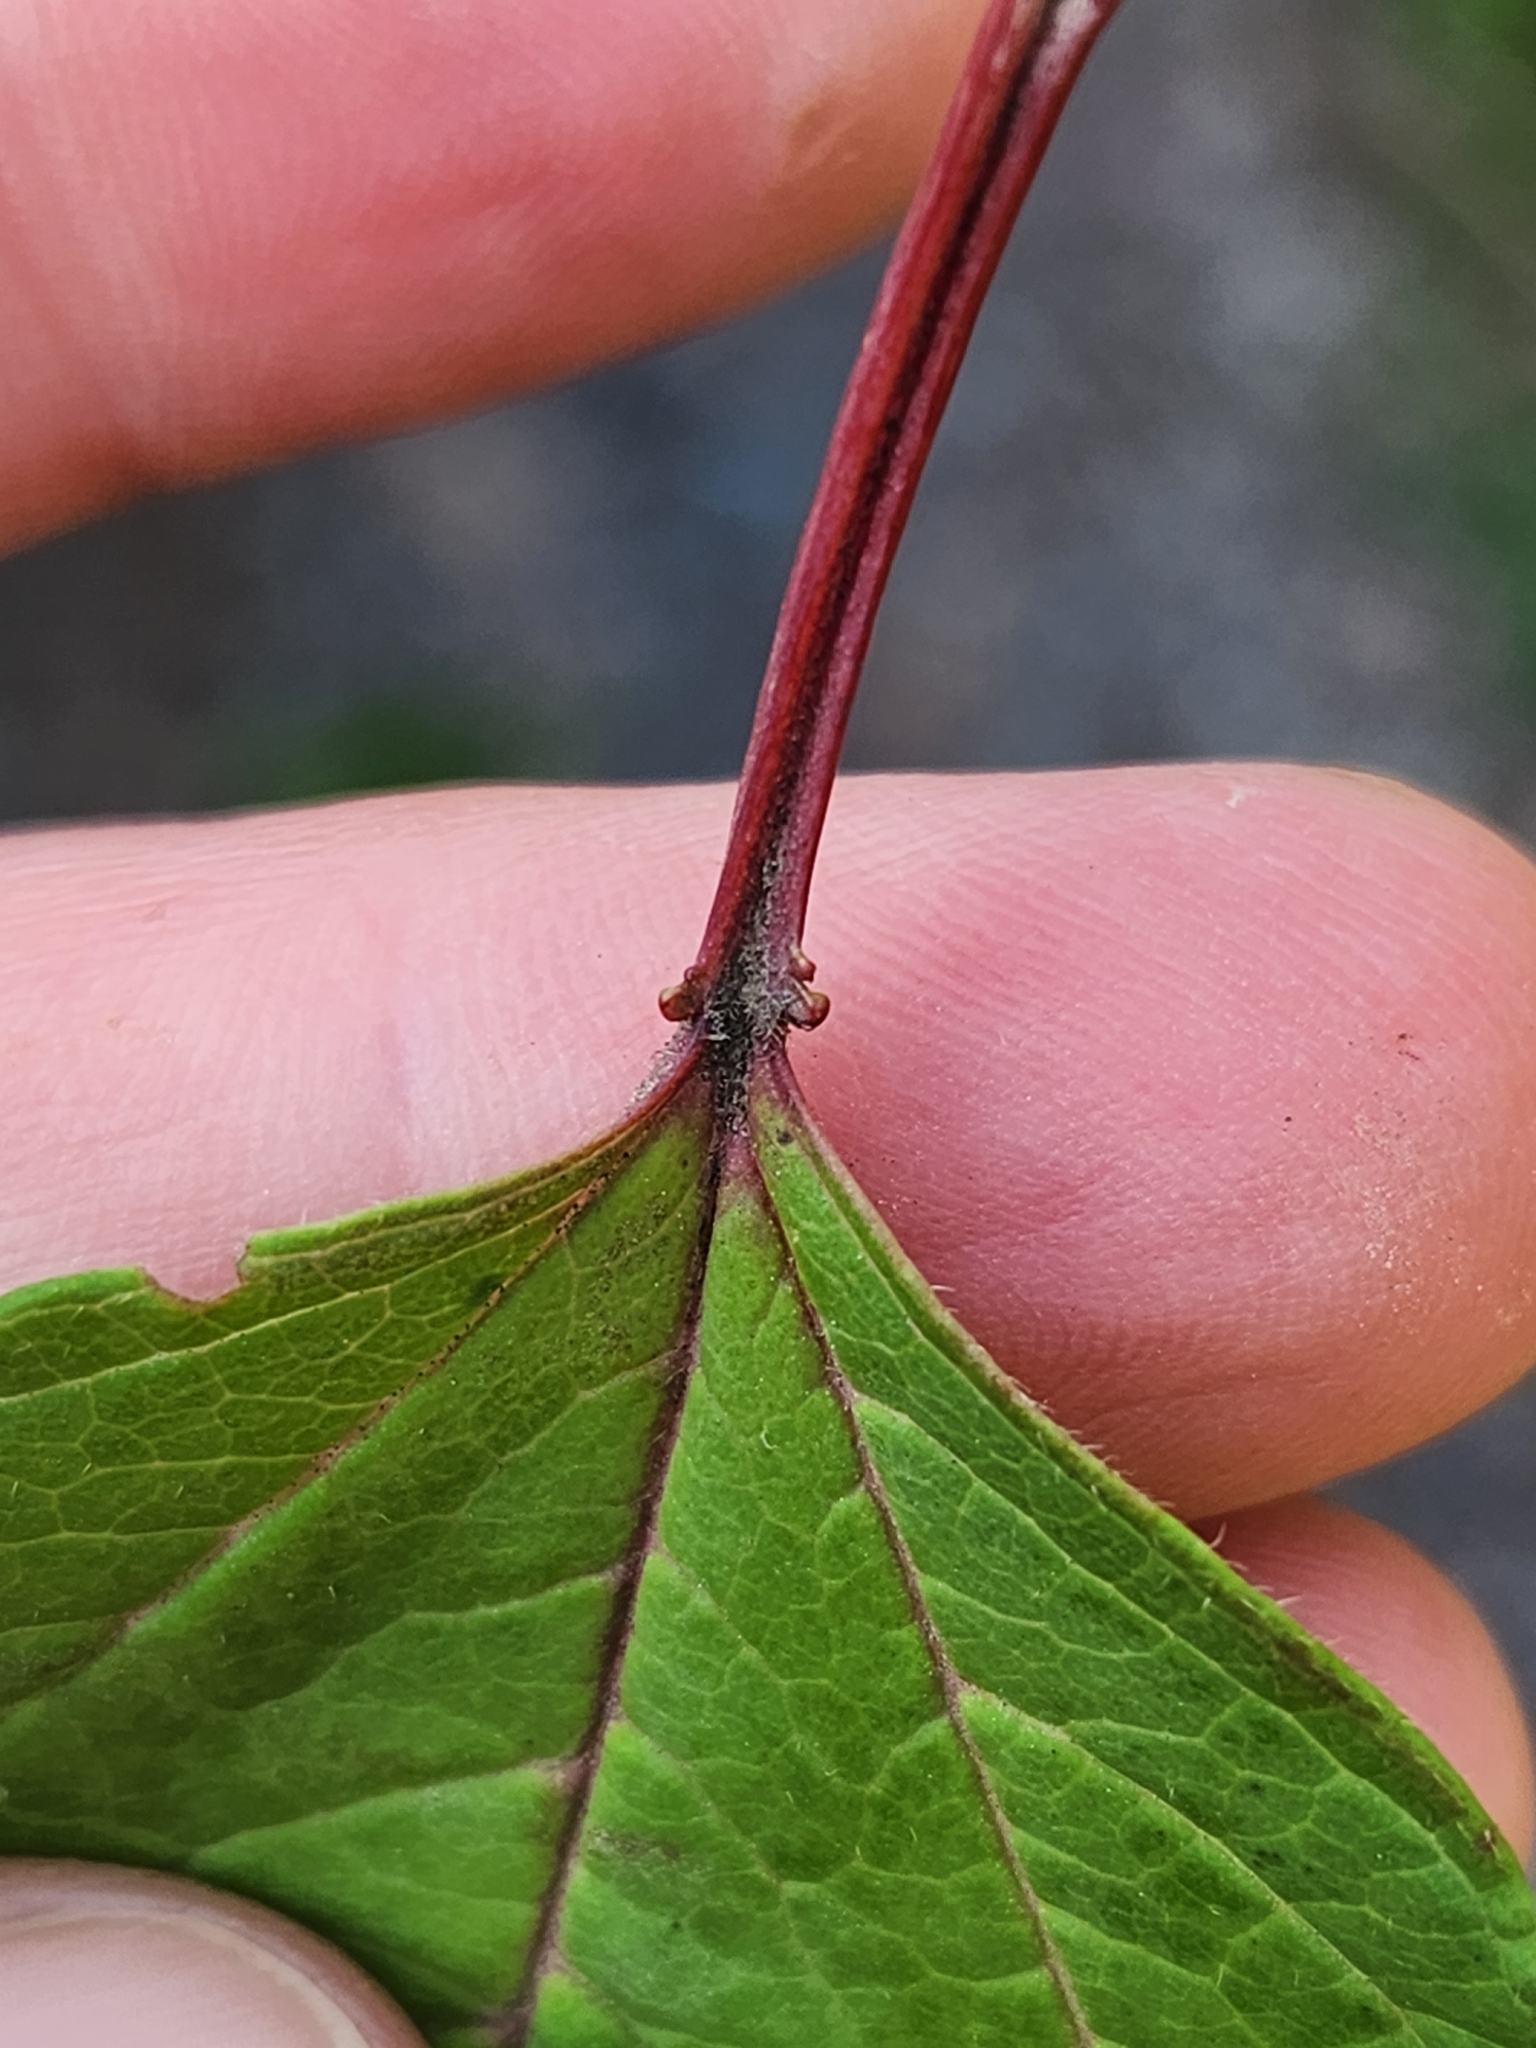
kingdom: Plantae
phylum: Tracheophyta
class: Magnoliopsida
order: Dipsacales
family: Viburnaceae
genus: Viburnum
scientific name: Viburnum trilobum
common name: American cranberrybush
